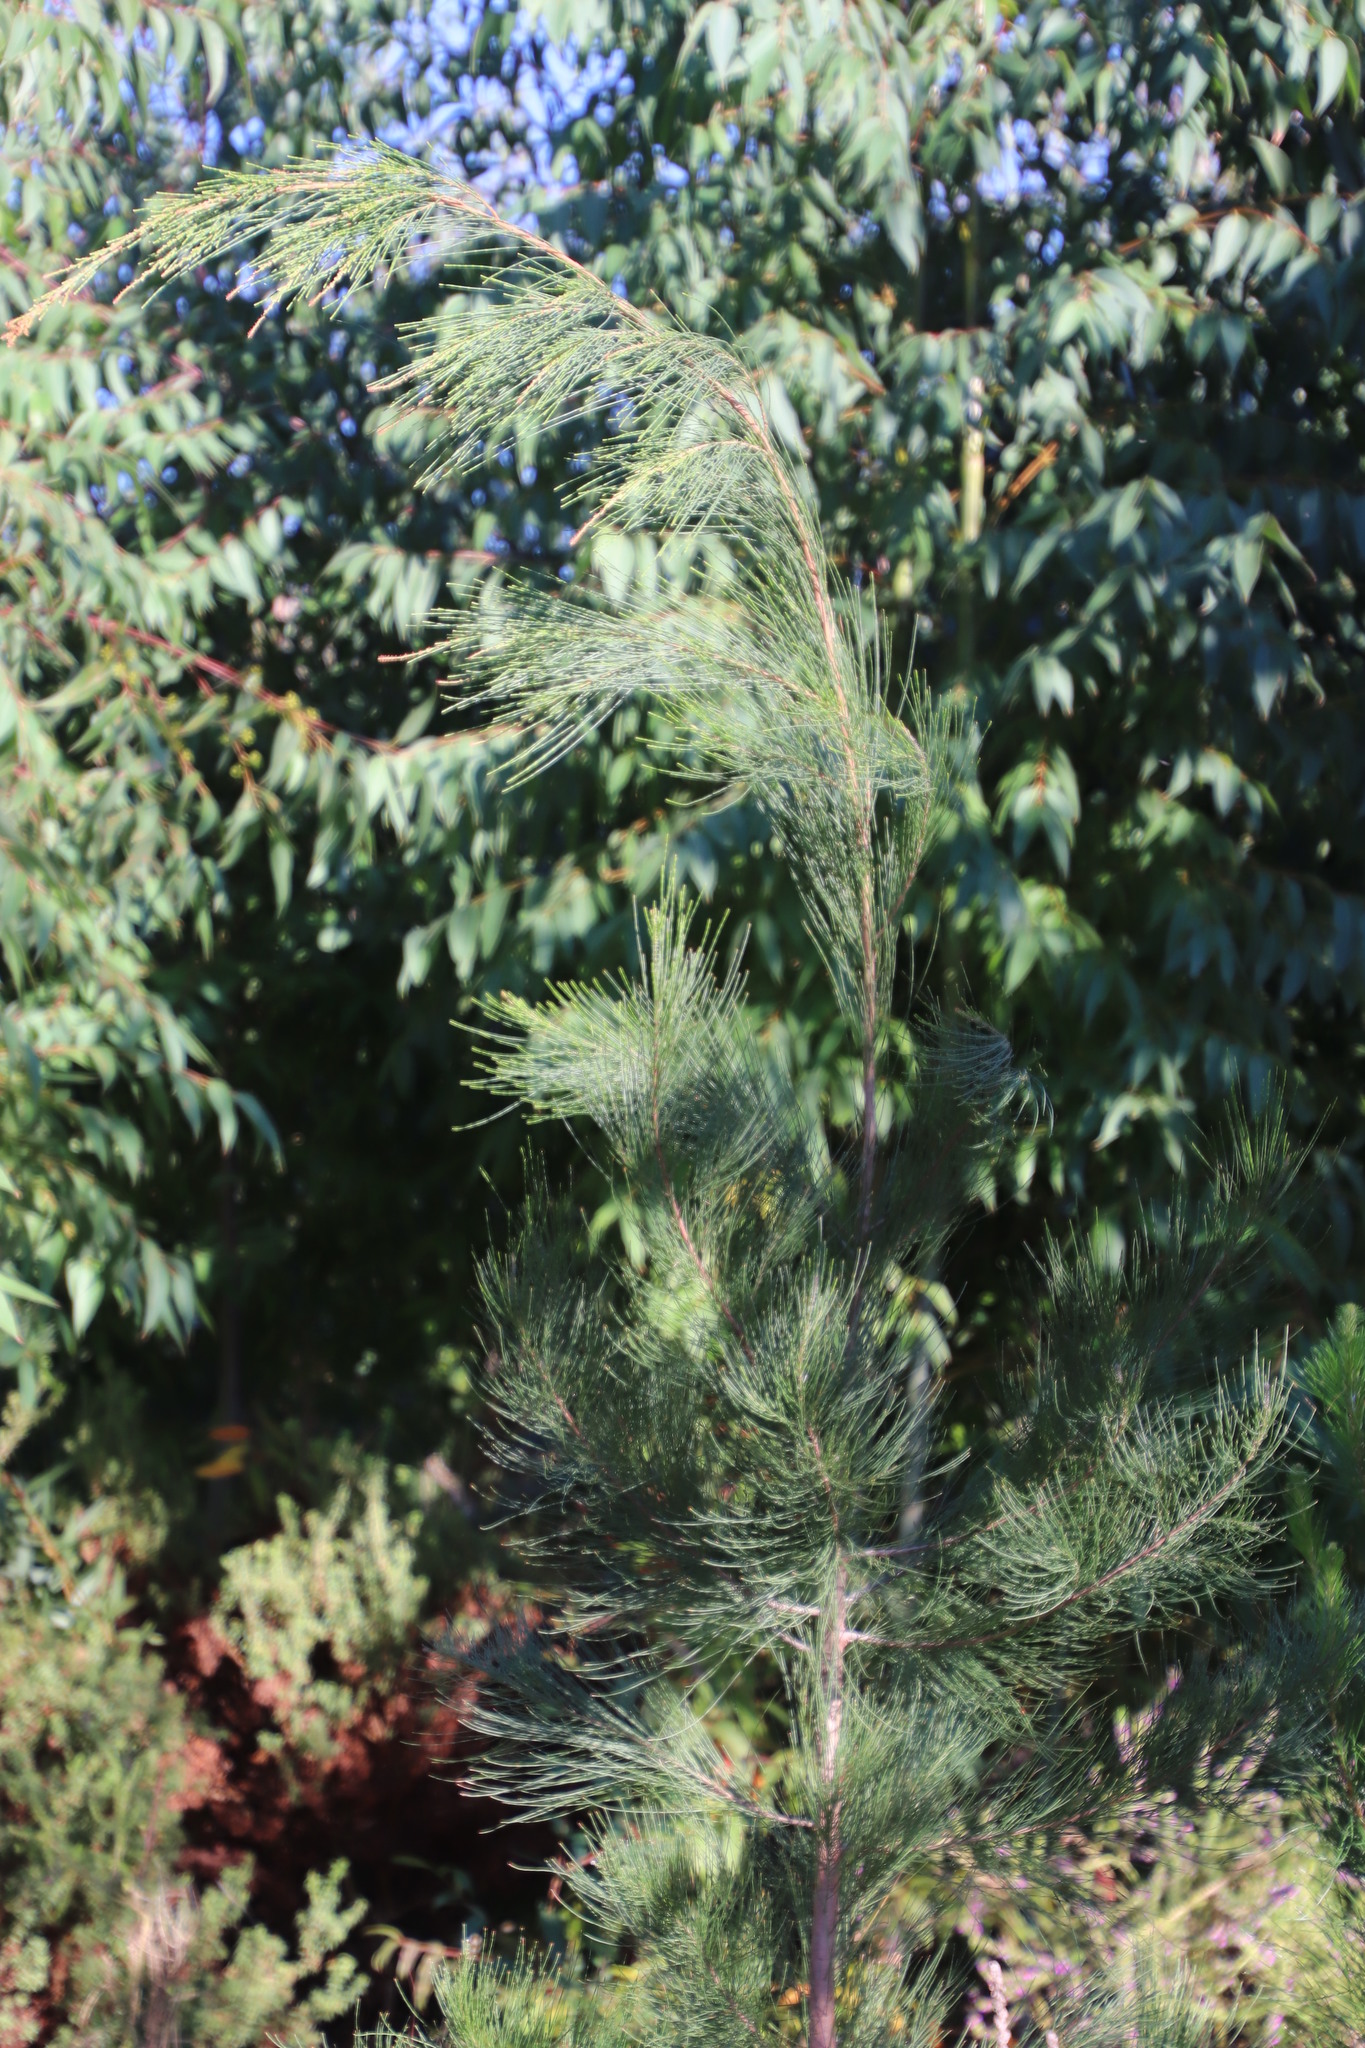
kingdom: Plantae
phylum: Tracheophyta
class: Magnoliopsida
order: Fagales
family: Casuarinaceae
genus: Allocasuarina
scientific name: Allocasuarina littoralis
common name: Black she-oak
